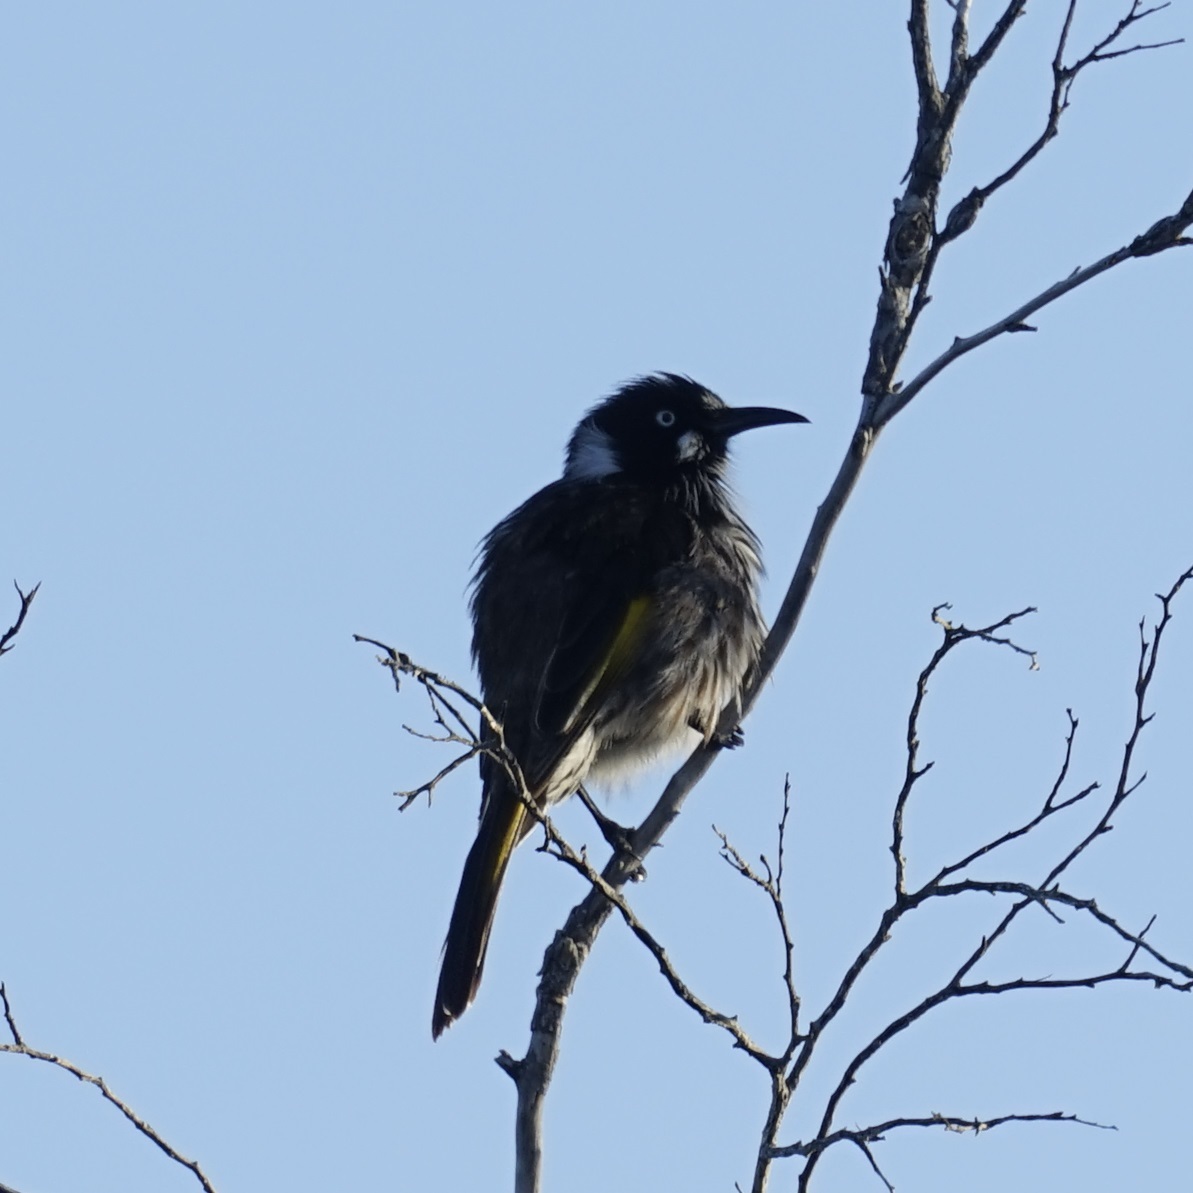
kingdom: Animalia
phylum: Chordata
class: Aves
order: Passeriformes
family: Meliphagidae
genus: Phylidonyris
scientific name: Phylidonyris novaehollandiae
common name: New holland honeyeater
